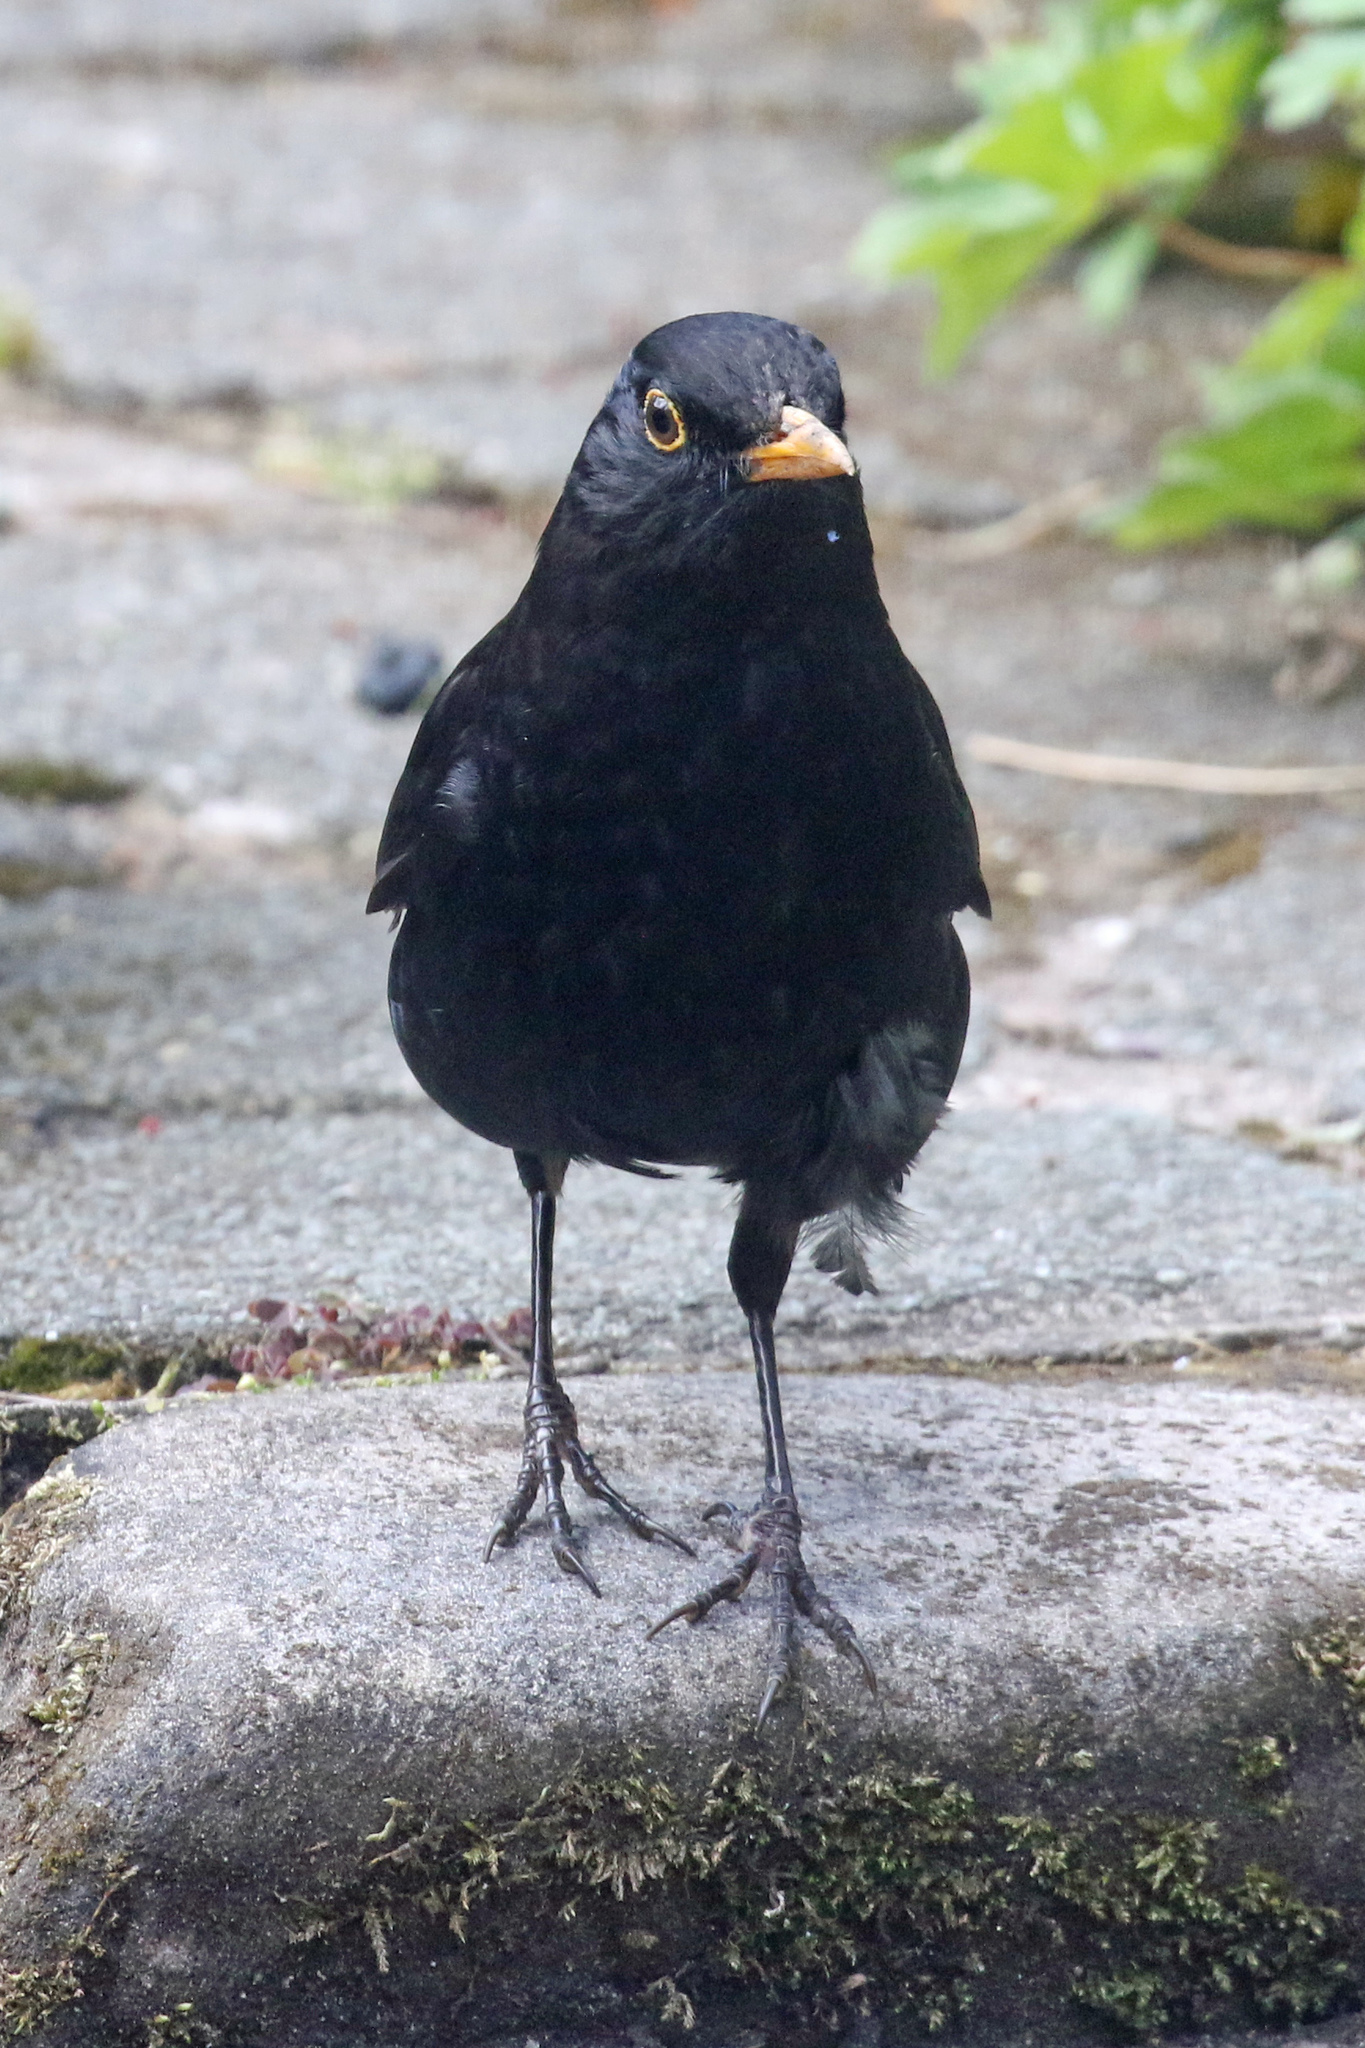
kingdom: Animalia
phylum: Chordata
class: Aves
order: Passeriformes
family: Turdidae
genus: Turdus
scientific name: Turdus merula
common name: Common blackbird
